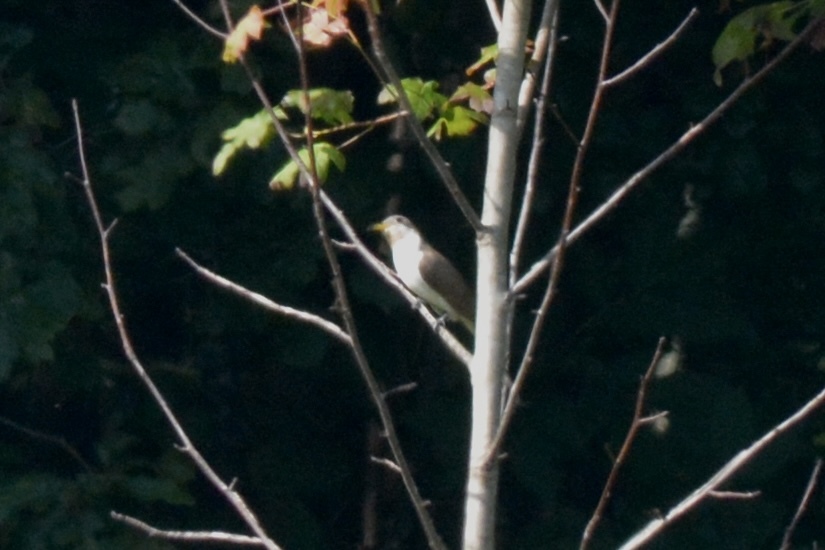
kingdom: Animalia
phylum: Chordata
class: Aves
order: Cuculiformes
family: Cuculidae
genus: Coccyzus
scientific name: Coccyzus americanus
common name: Yellow-billed cuckoo
